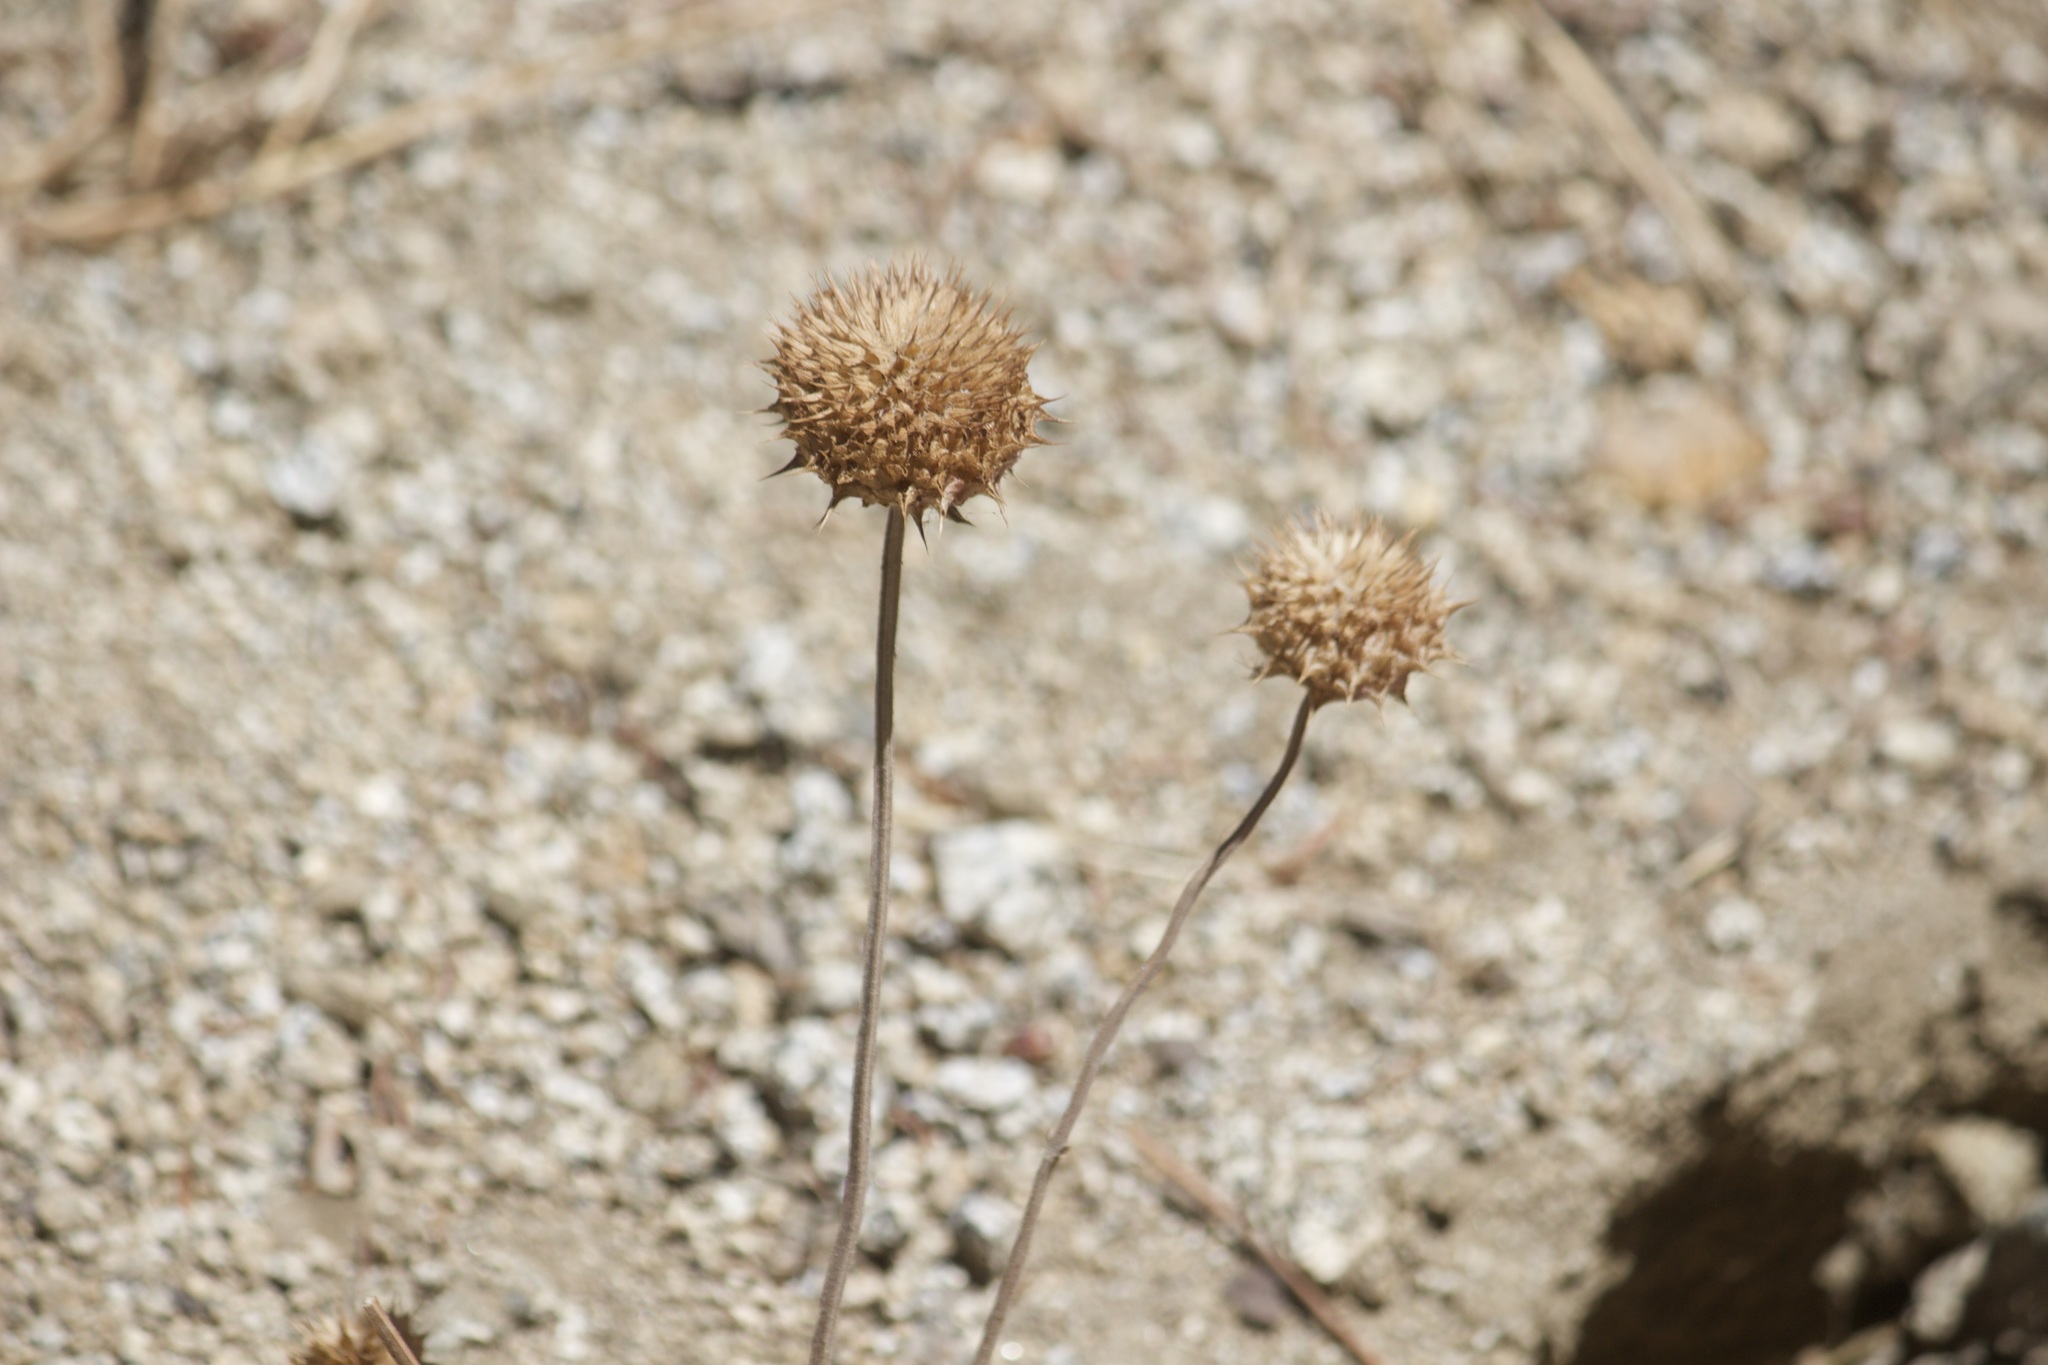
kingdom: Plantae
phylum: Tracheophyta
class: Magnoliopsida
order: Lamiales
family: Lamiaceae
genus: Salvia
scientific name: Salvia columbariae
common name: Chia
